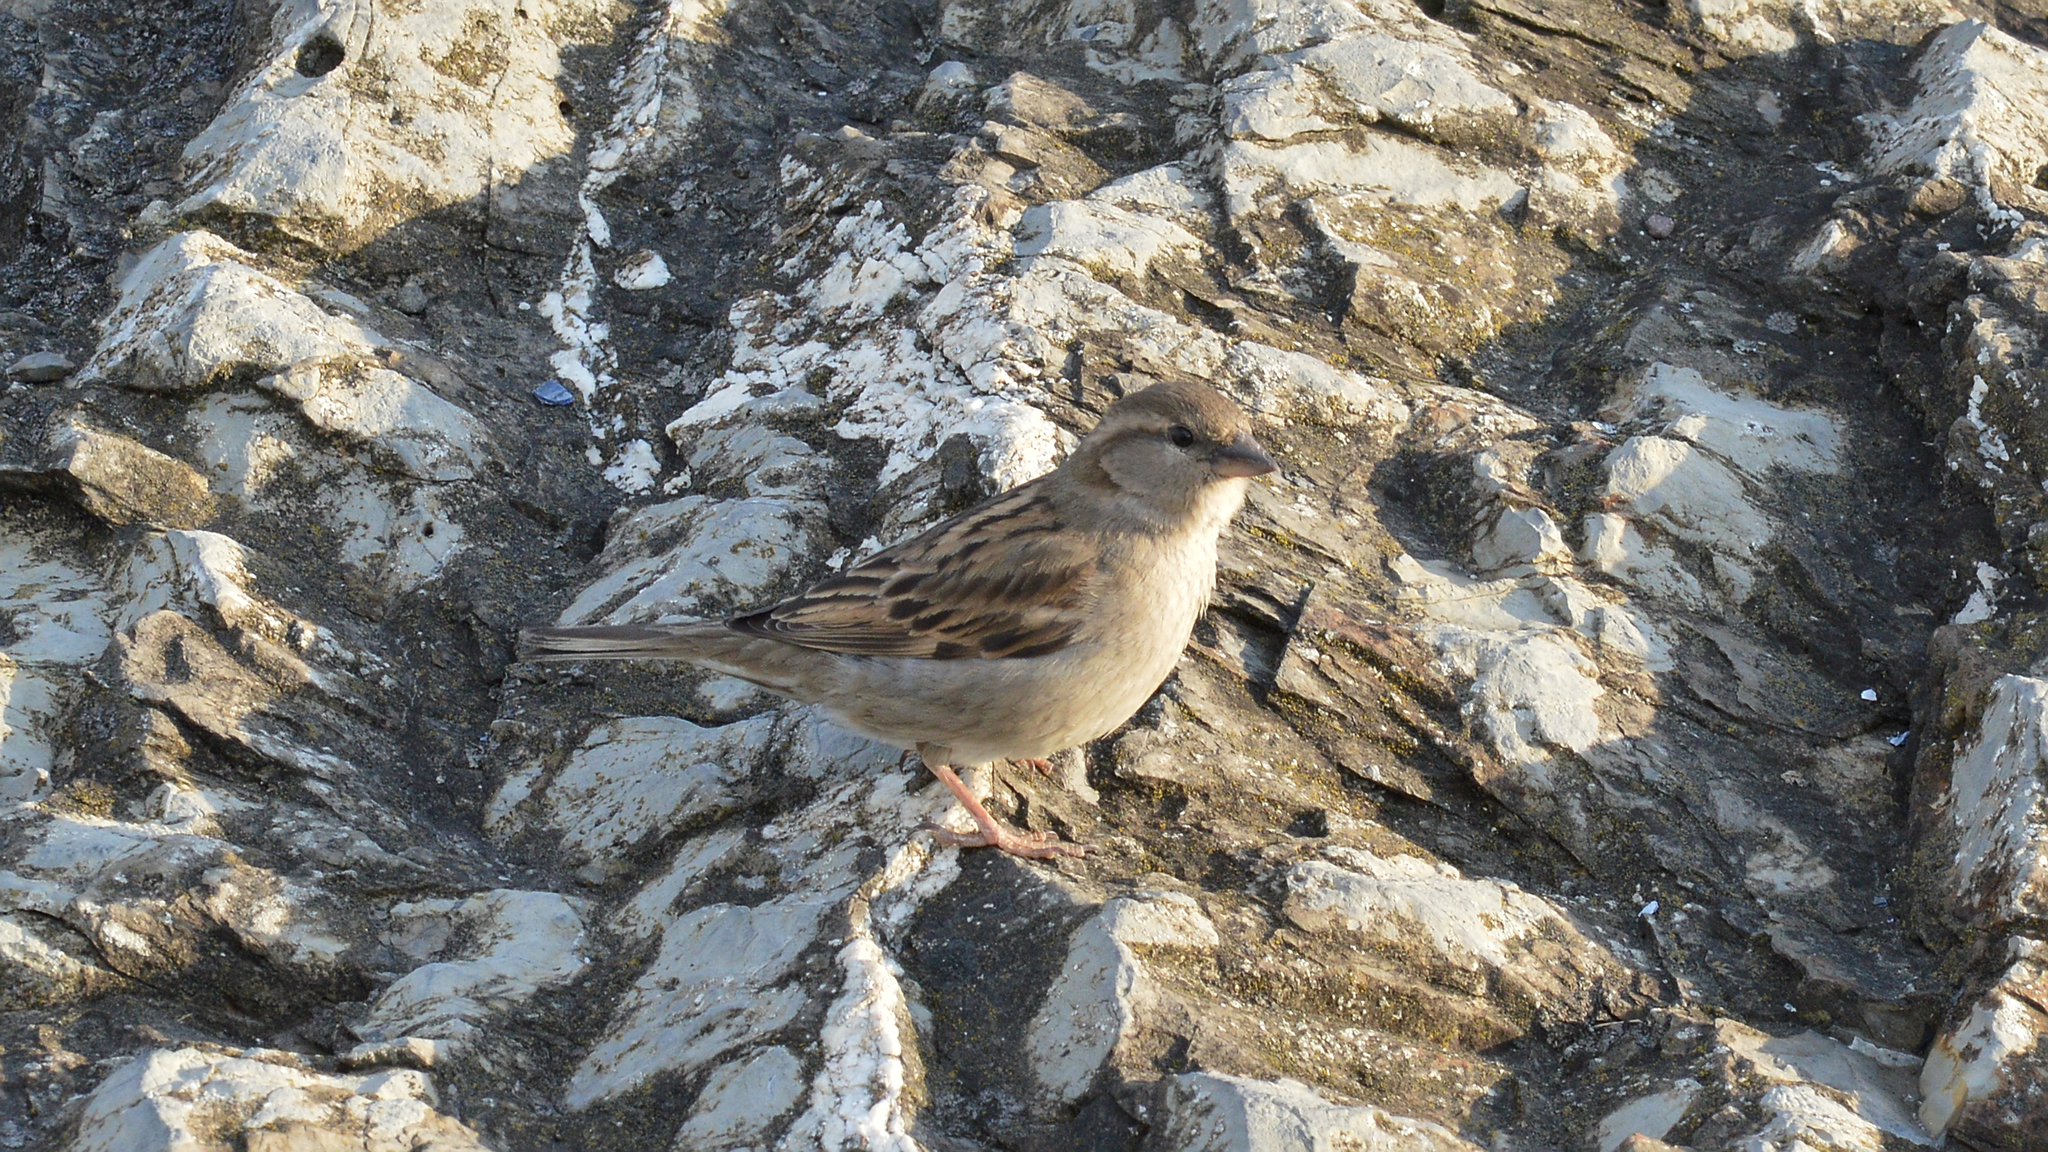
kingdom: Animalia
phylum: Chordata
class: Aves
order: Passeriformes
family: Passeridae
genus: Passer
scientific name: Passer domesticus
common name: House sparrow
